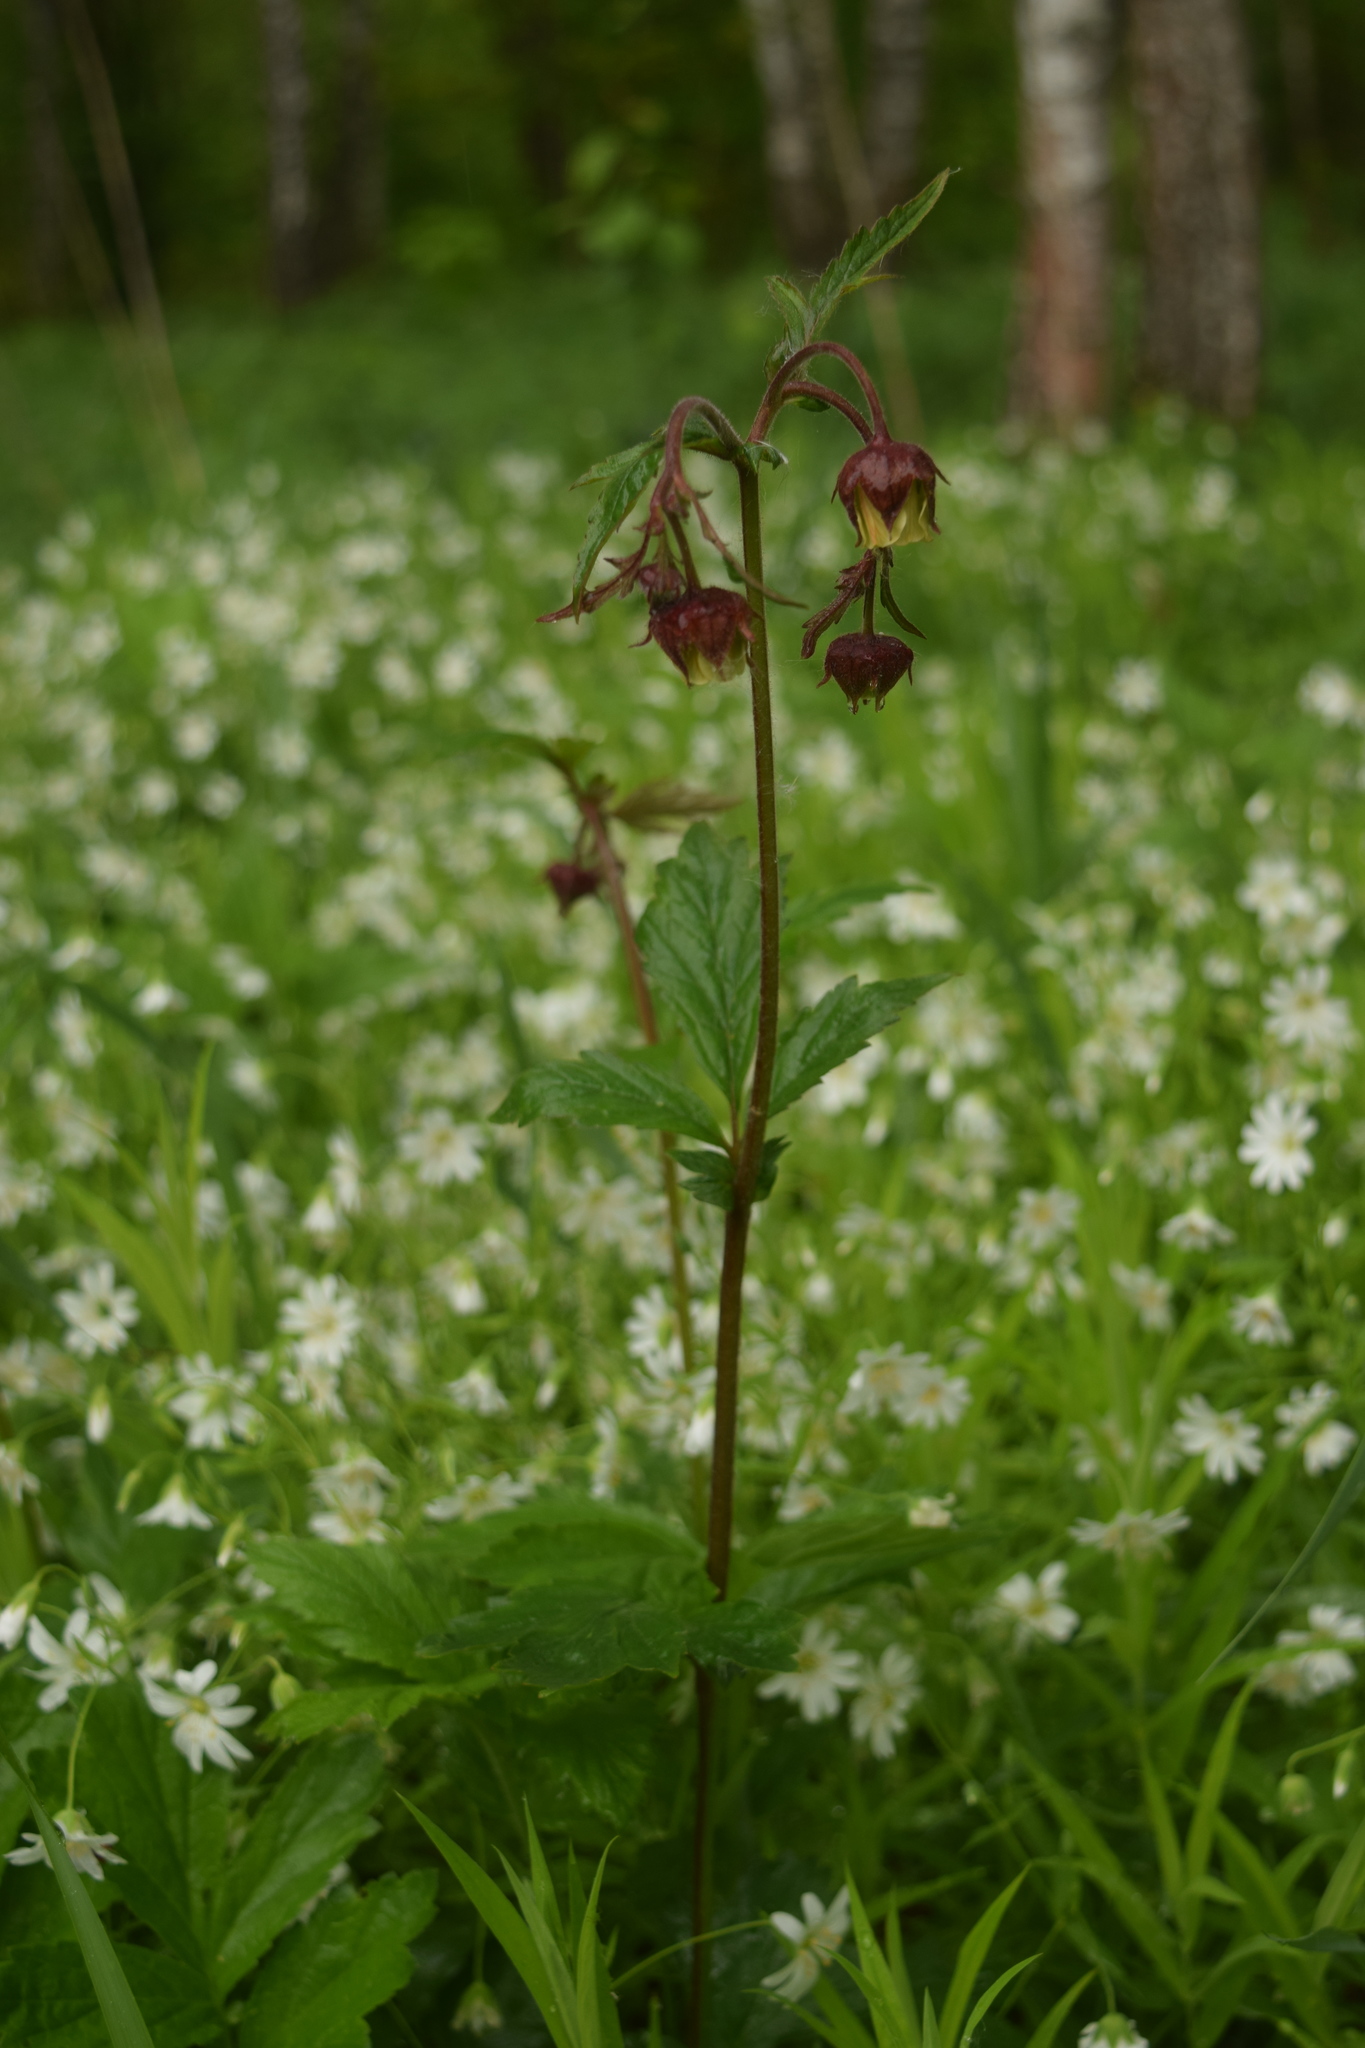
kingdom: Plantae
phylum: Tracheophyta
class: Magnoliopsida
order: Rosales
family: Rosaceae
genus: Geum
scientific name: Geum rivale
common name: Water avens
